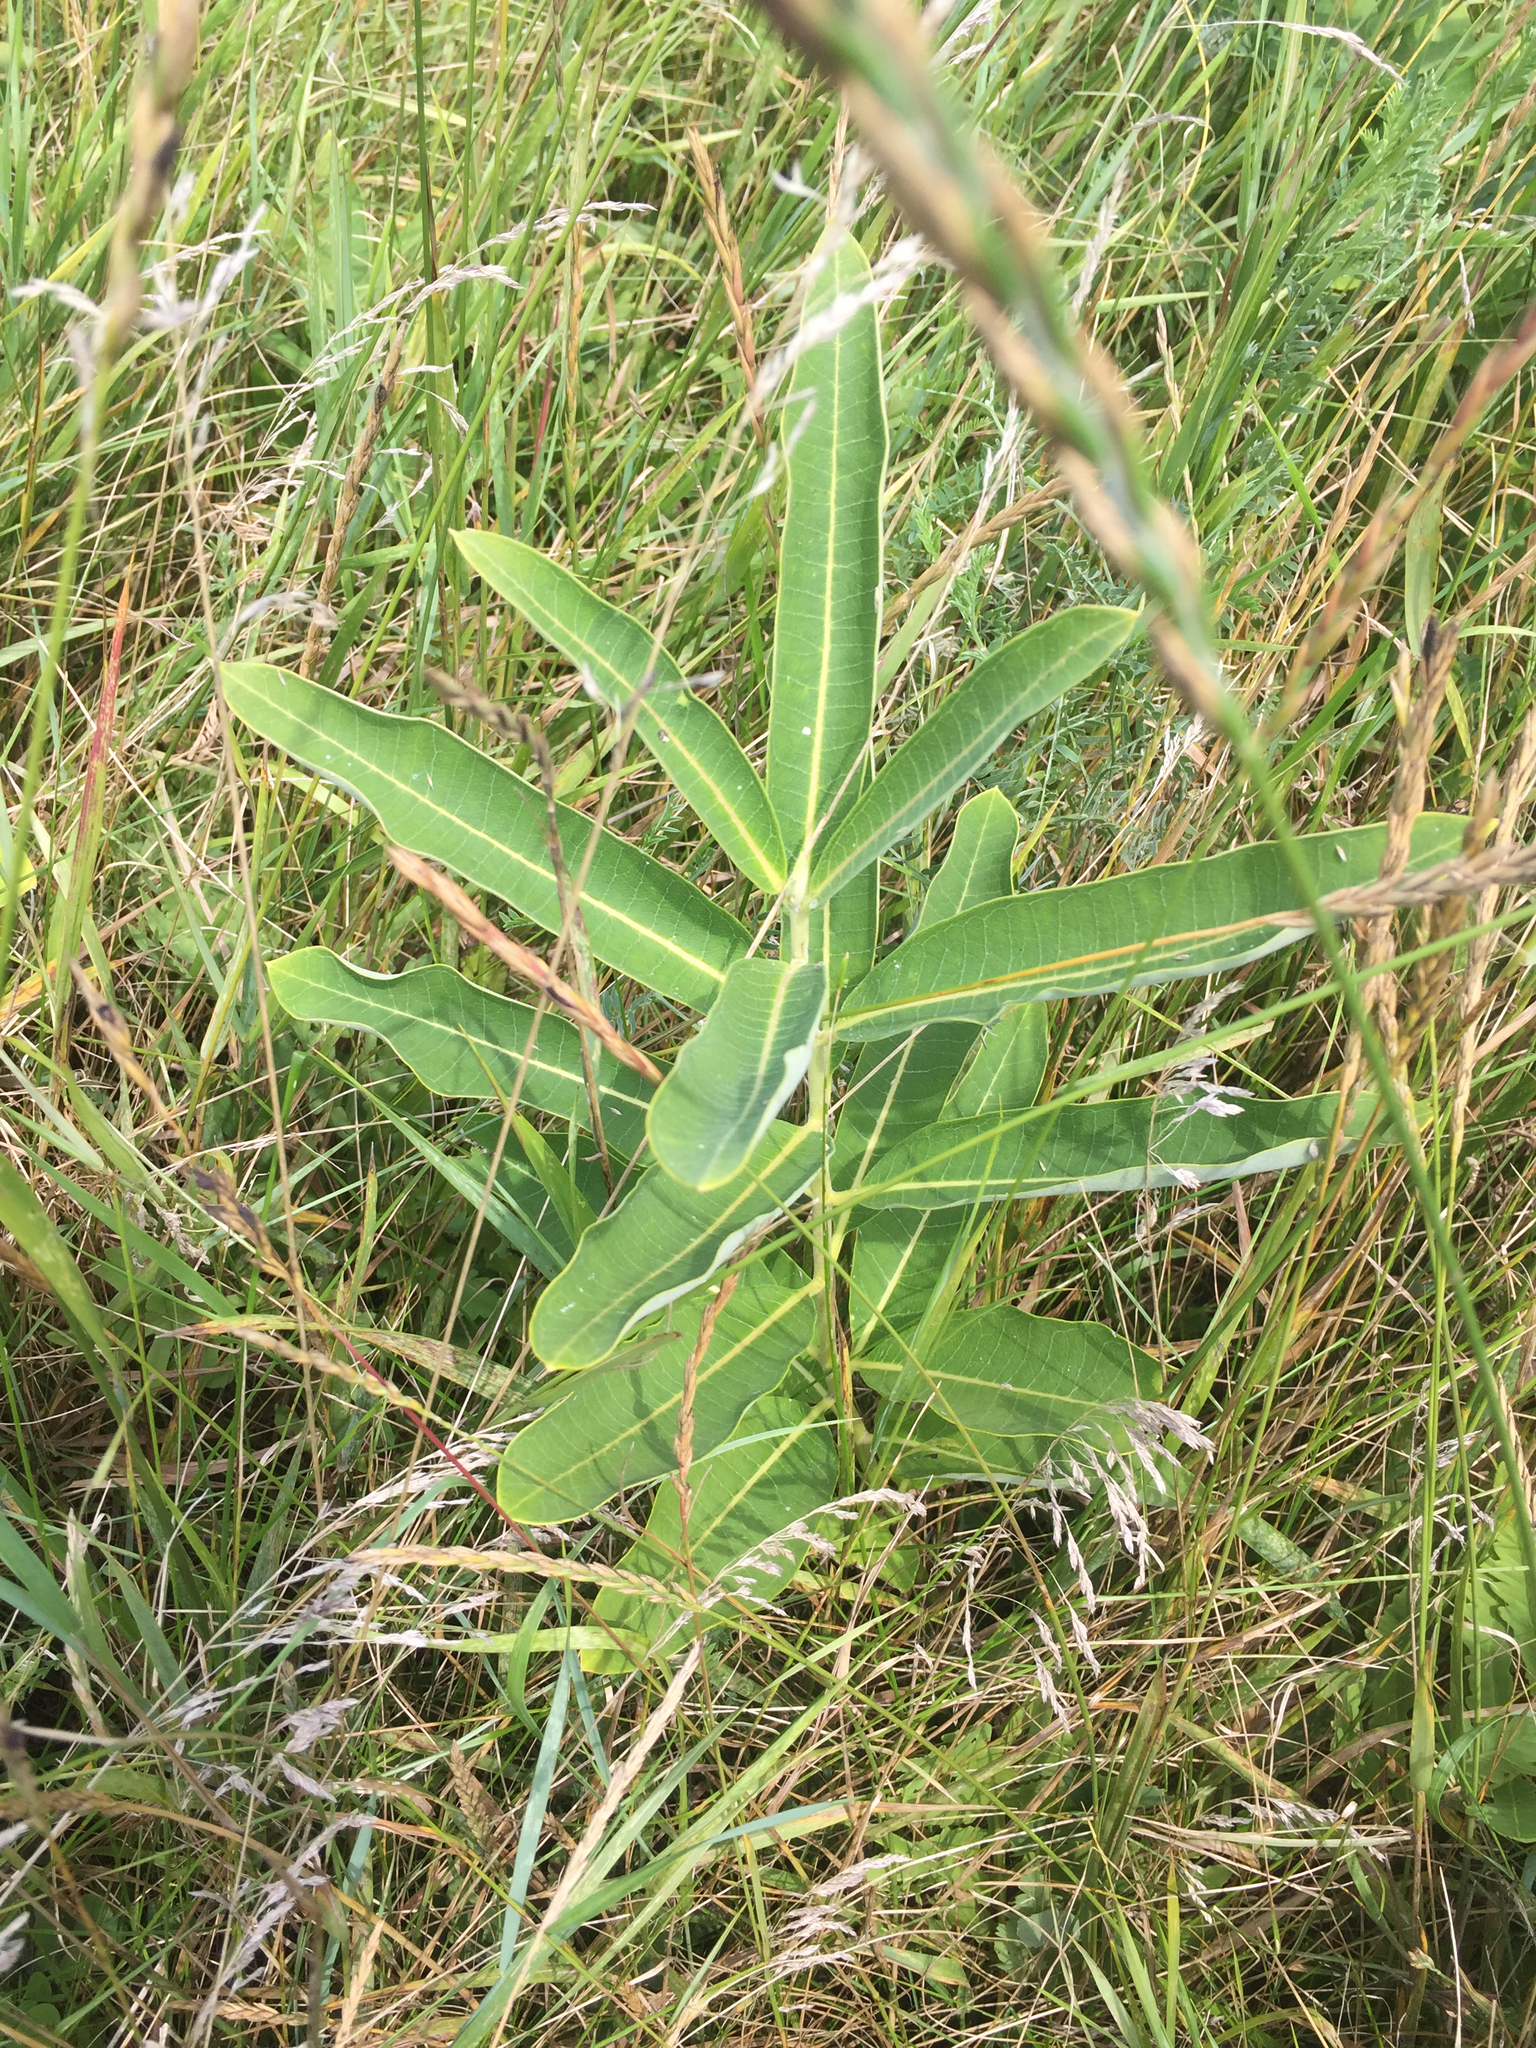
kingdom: Plantae
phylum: Tracheophyta
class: Magnoliopsida
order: Gentianales
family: Apocynaceae
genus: Asclepias
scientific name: Asclepias syriaca
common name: Common milkweed
